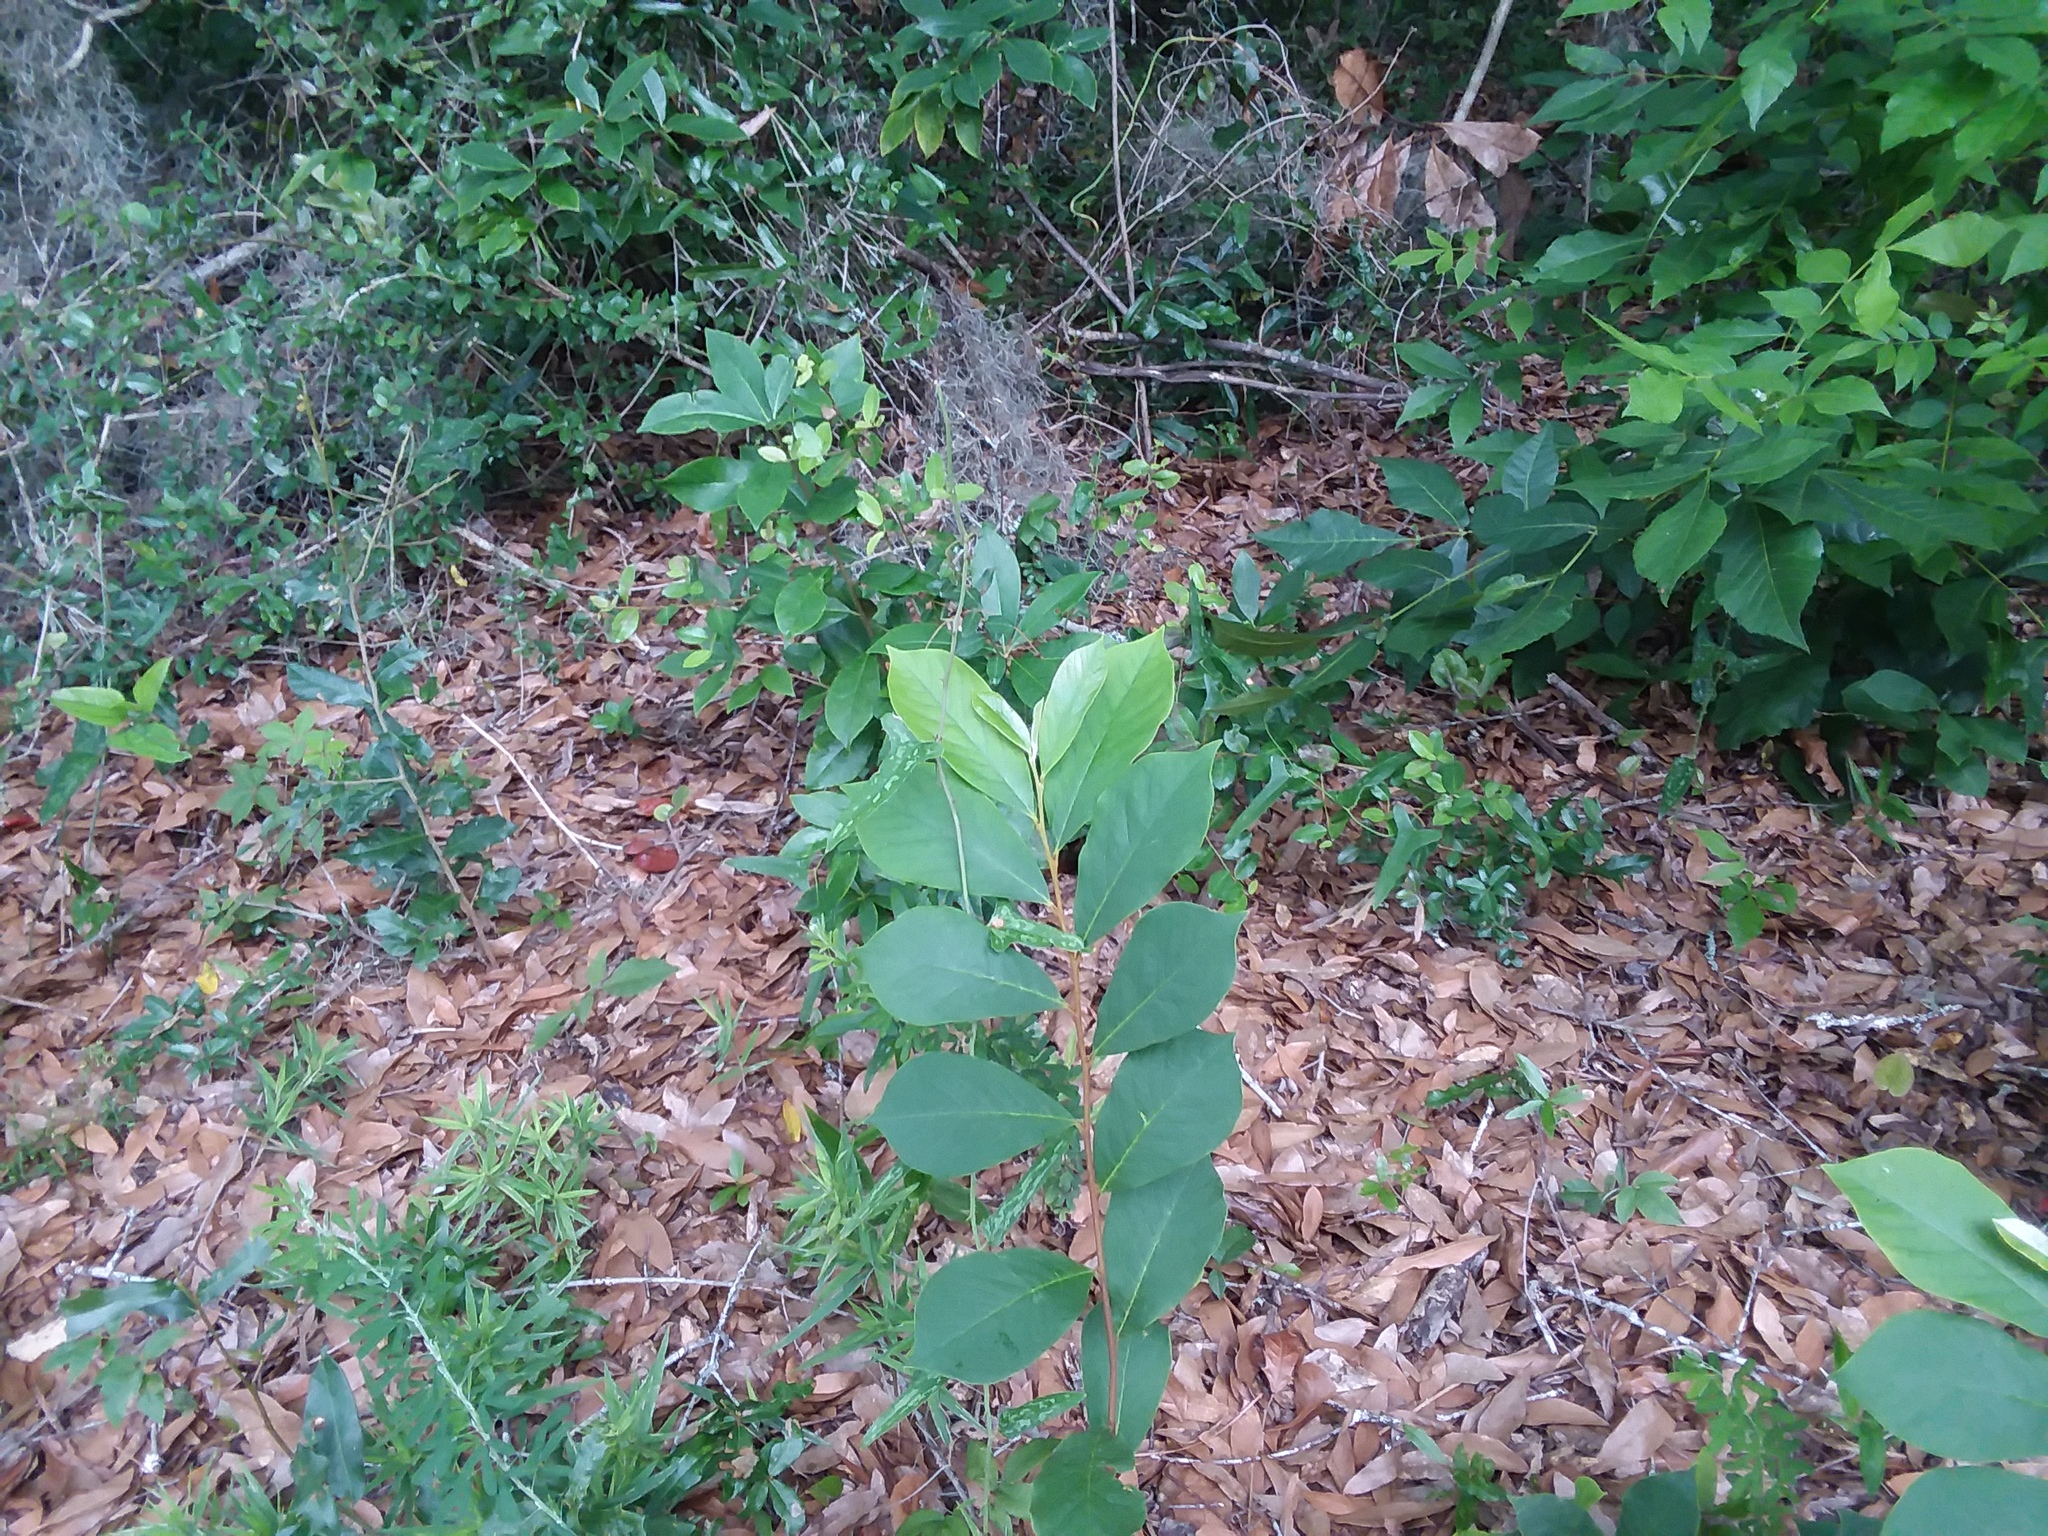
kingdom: Plantae
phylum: Tracheophyta
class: Magnoliopsida
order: Magnoliales
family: Annonaceae
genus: Asimina
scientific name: Asimina parviflora
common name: Dwarf pawpaw
